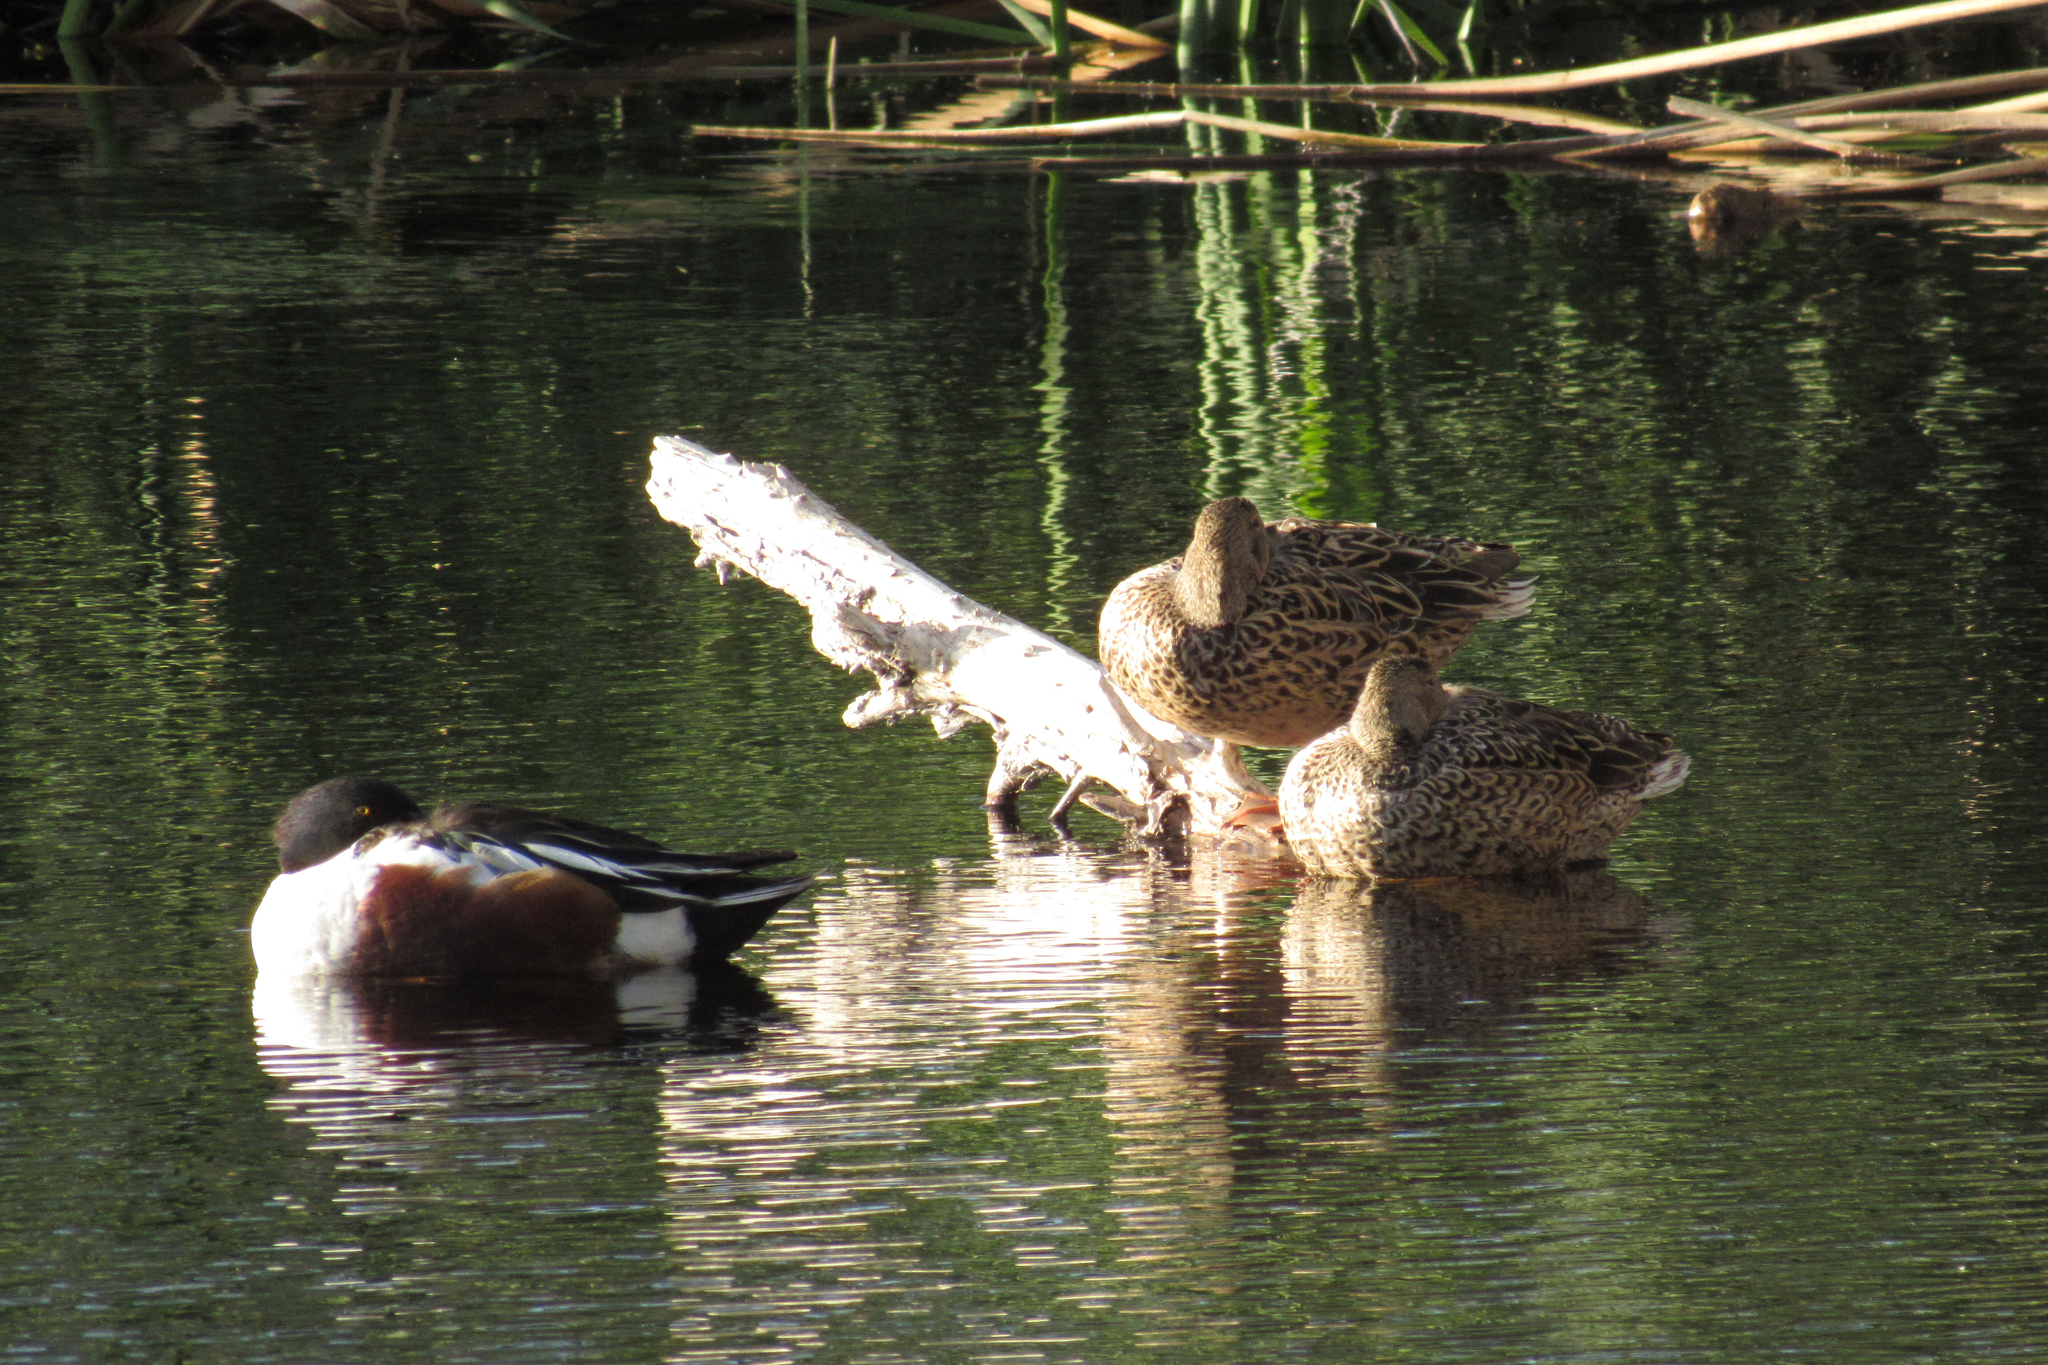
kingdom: Animalia
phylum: Chordata
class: Aves
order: Anseriformes
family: Anatidae
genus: Spatula
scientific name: Spatula clypeata
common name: Northern shoveler
